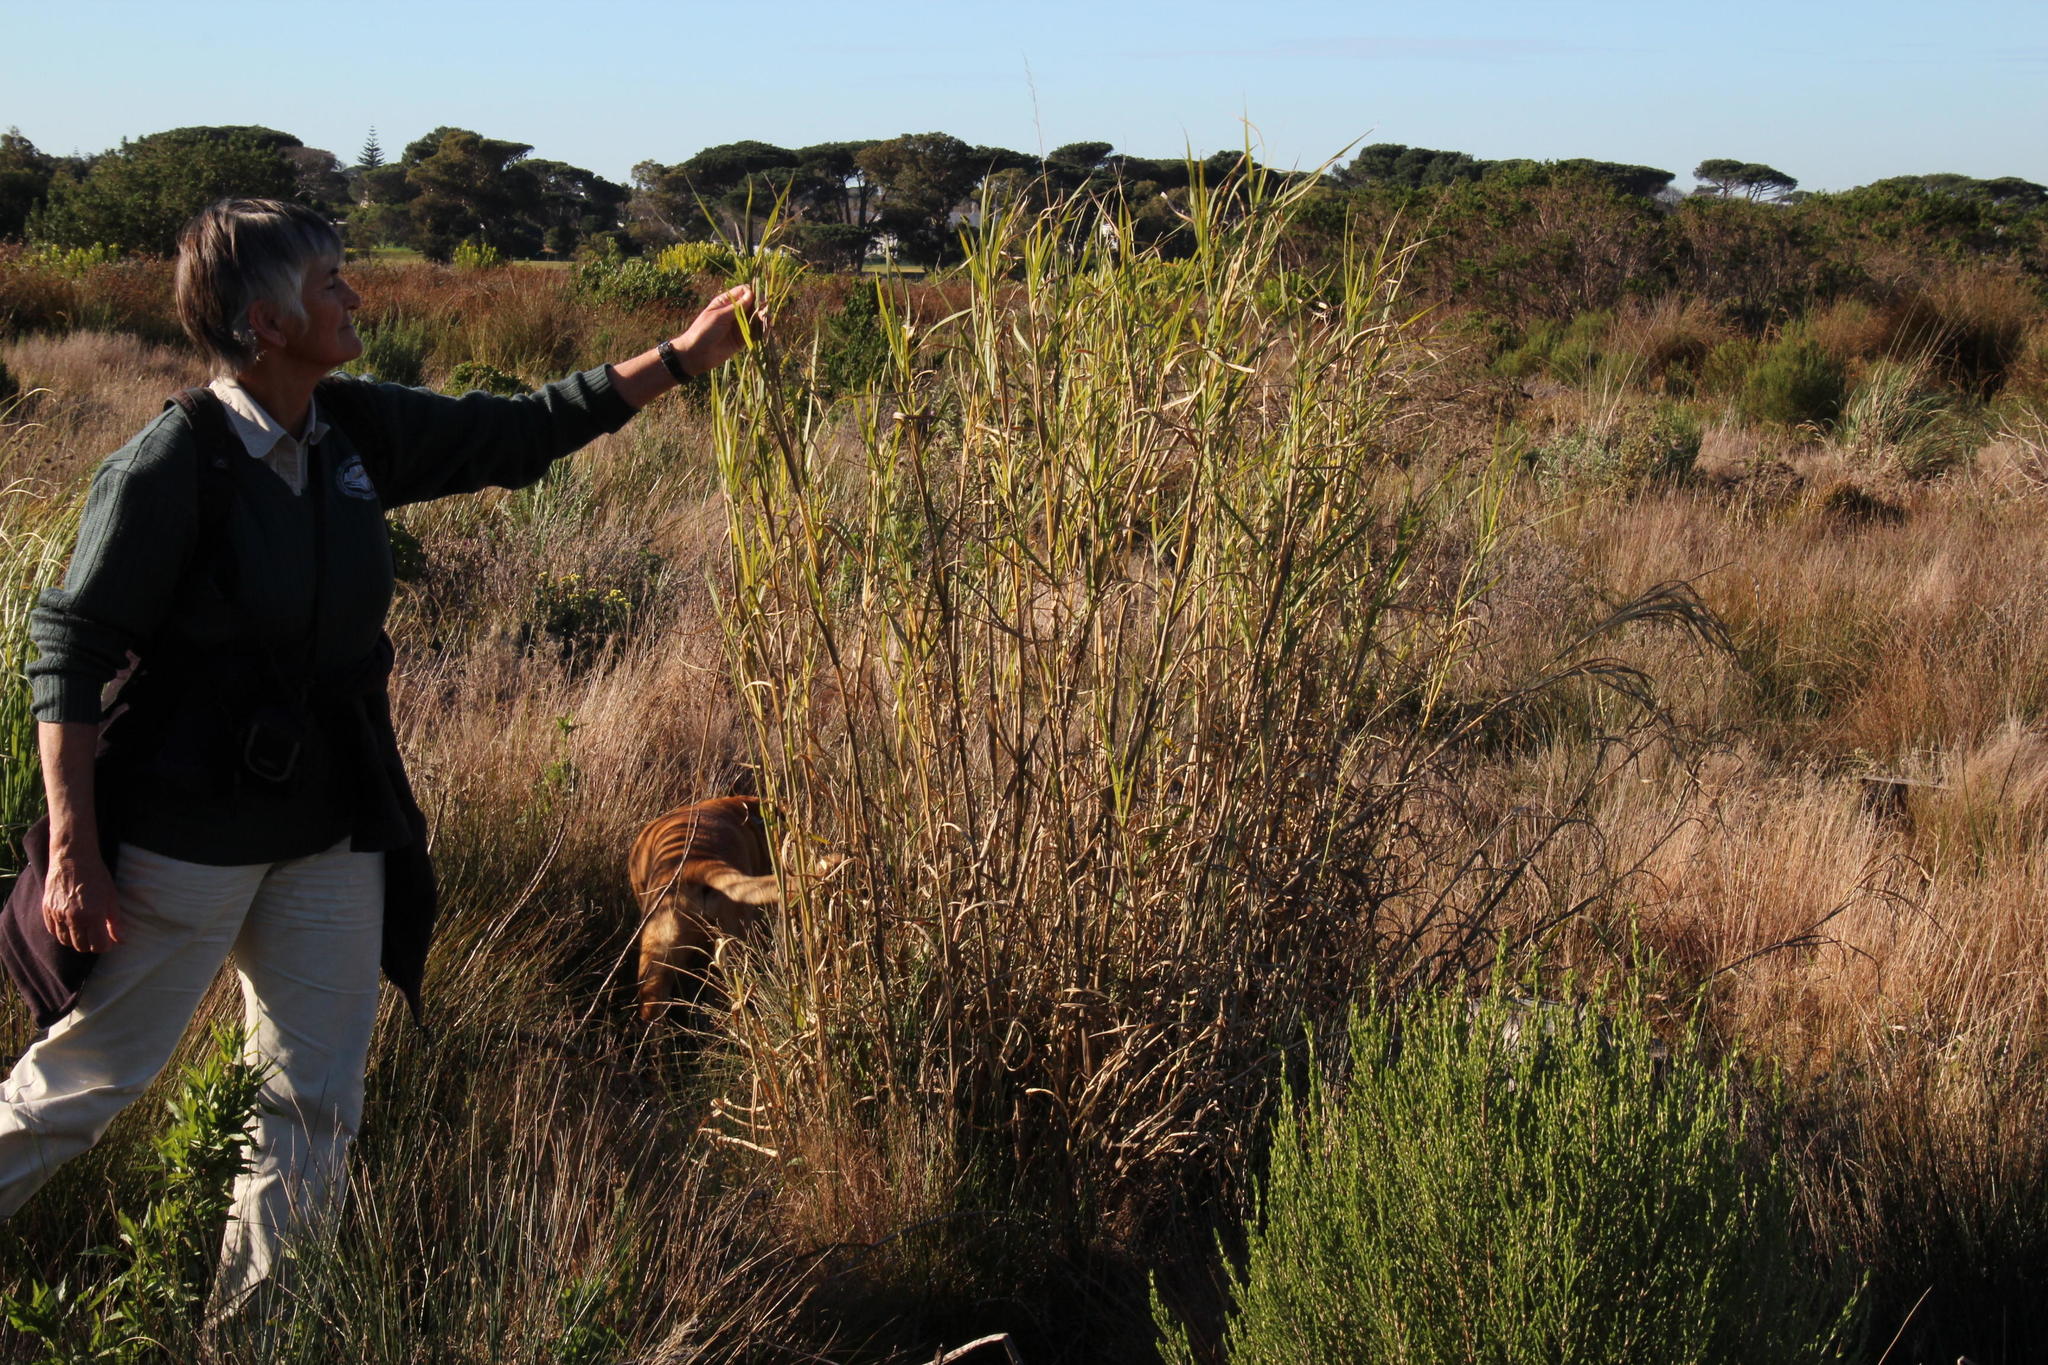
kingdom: Plantae
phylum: Tracheophyta
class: Liliopsida
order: Poales
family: Poaceae
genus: Echinochloa
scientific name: Echinochloa pyramidalis
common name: Antelope grass
